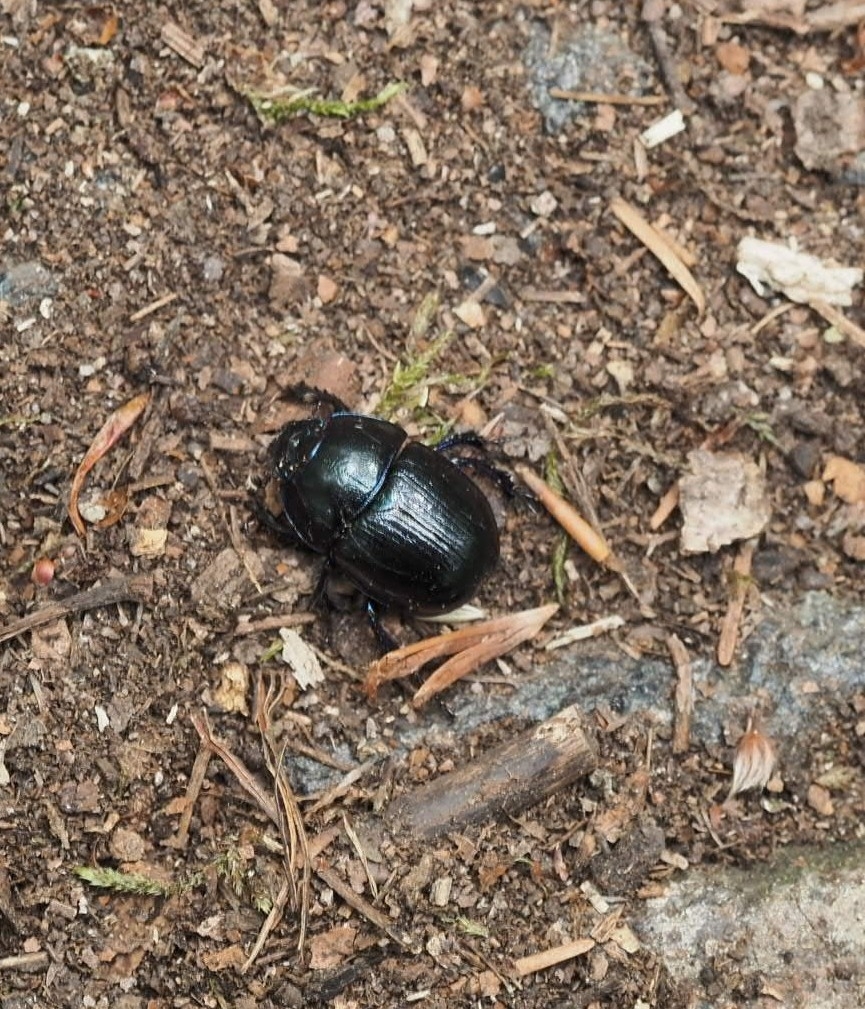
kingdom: Animalia
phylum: Arthropoda
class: Insecta
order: Coleoptera
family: Geotrupidae
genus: Anoplotrupes
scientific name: Anoplotrupes stercorosus
